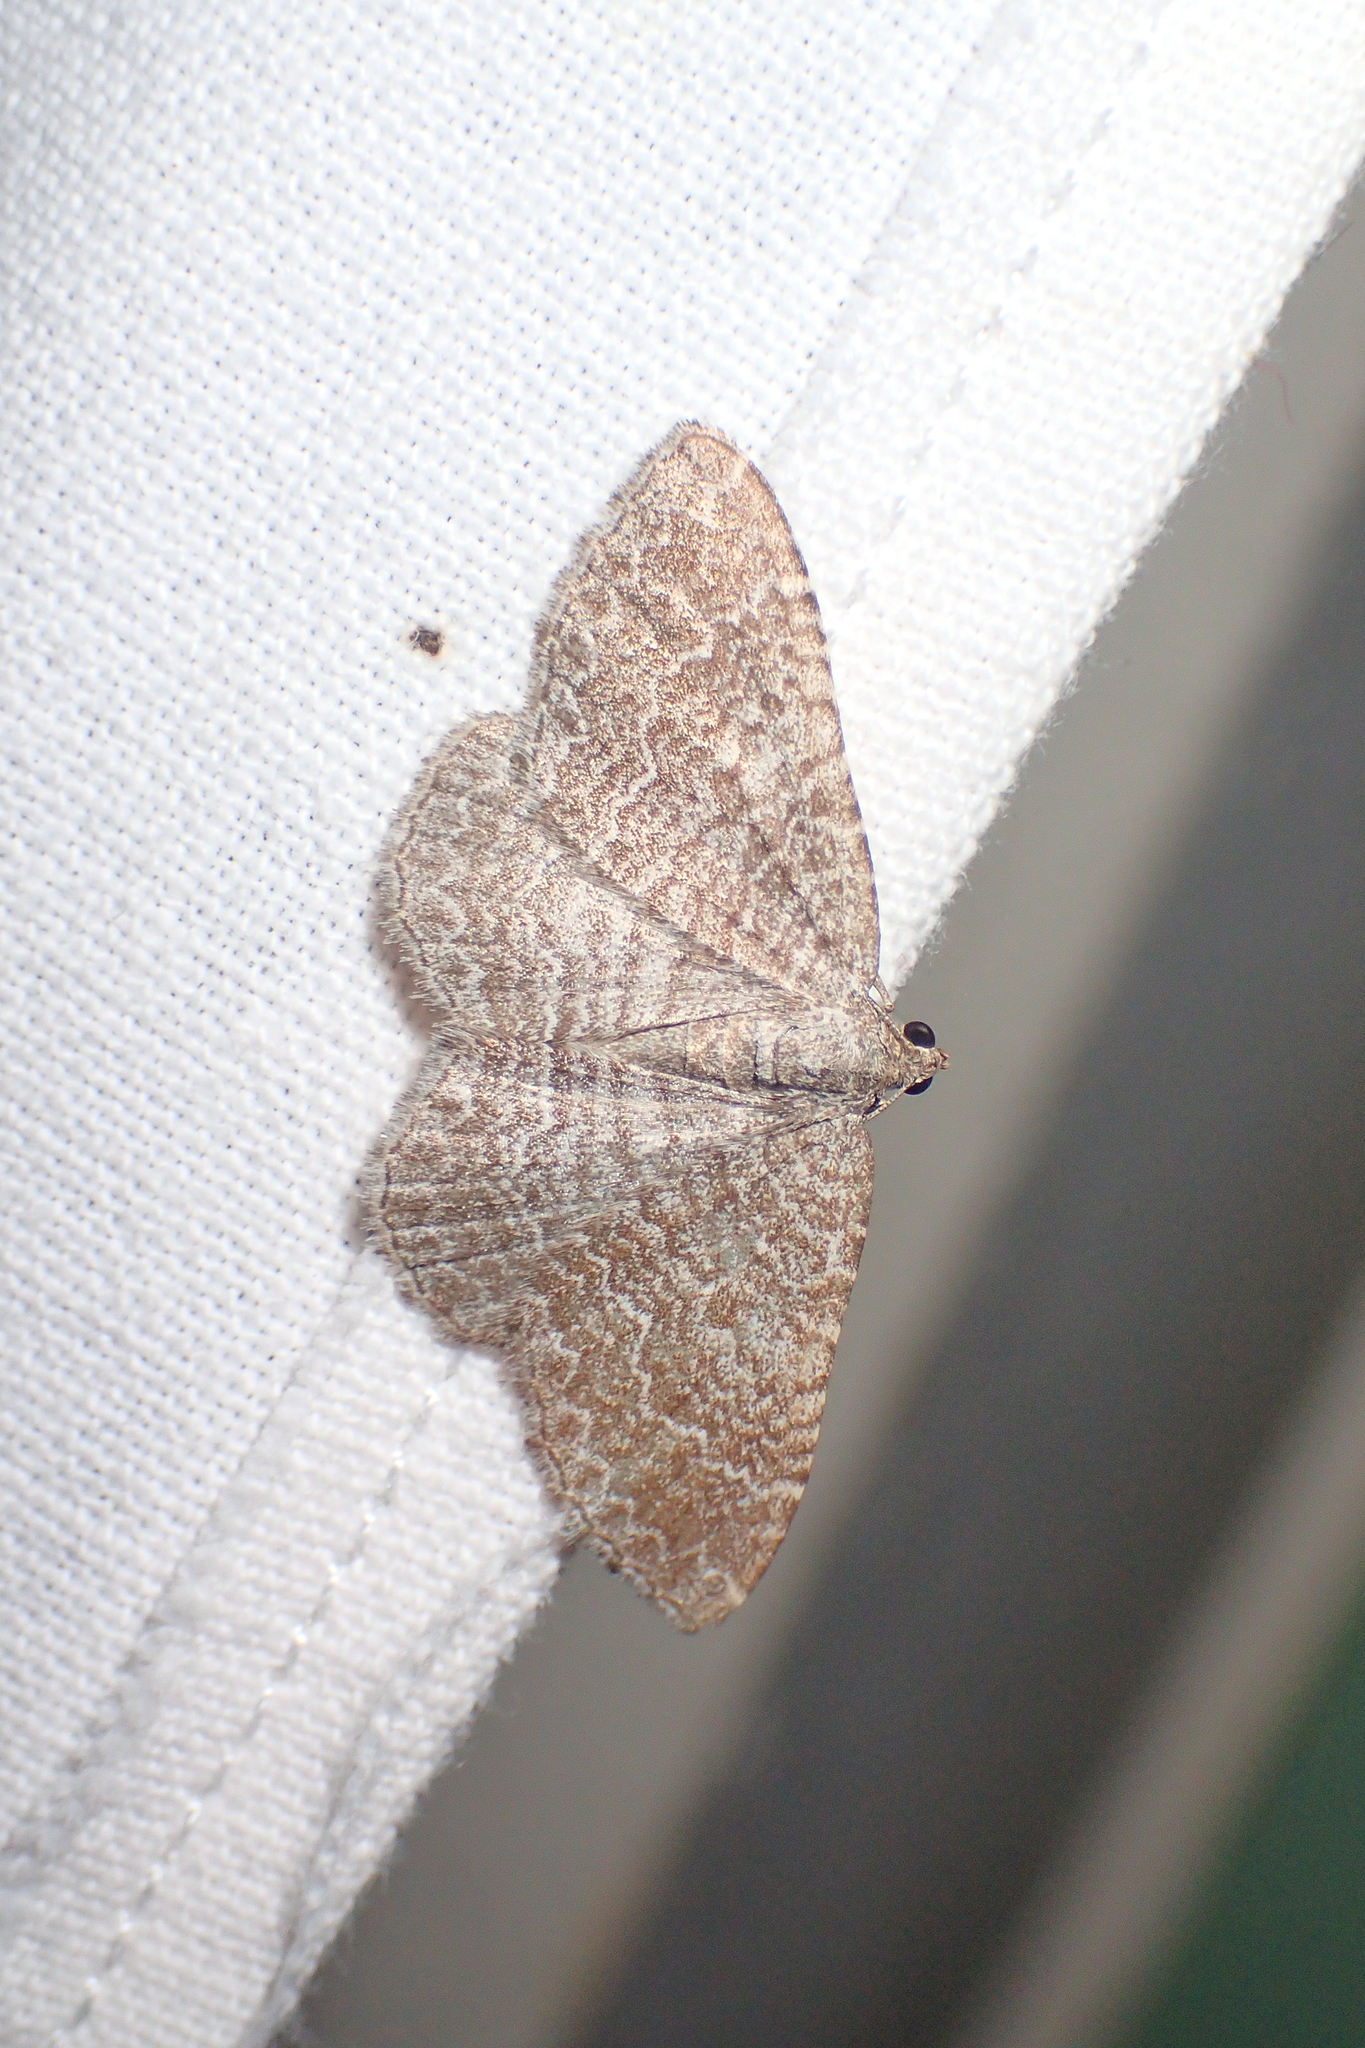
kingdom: Animalia
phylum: Arthropoda
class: Insecta
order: Lepidoptera
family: Geometridae
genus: Cataclysme
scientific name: Cataclysme riguata
